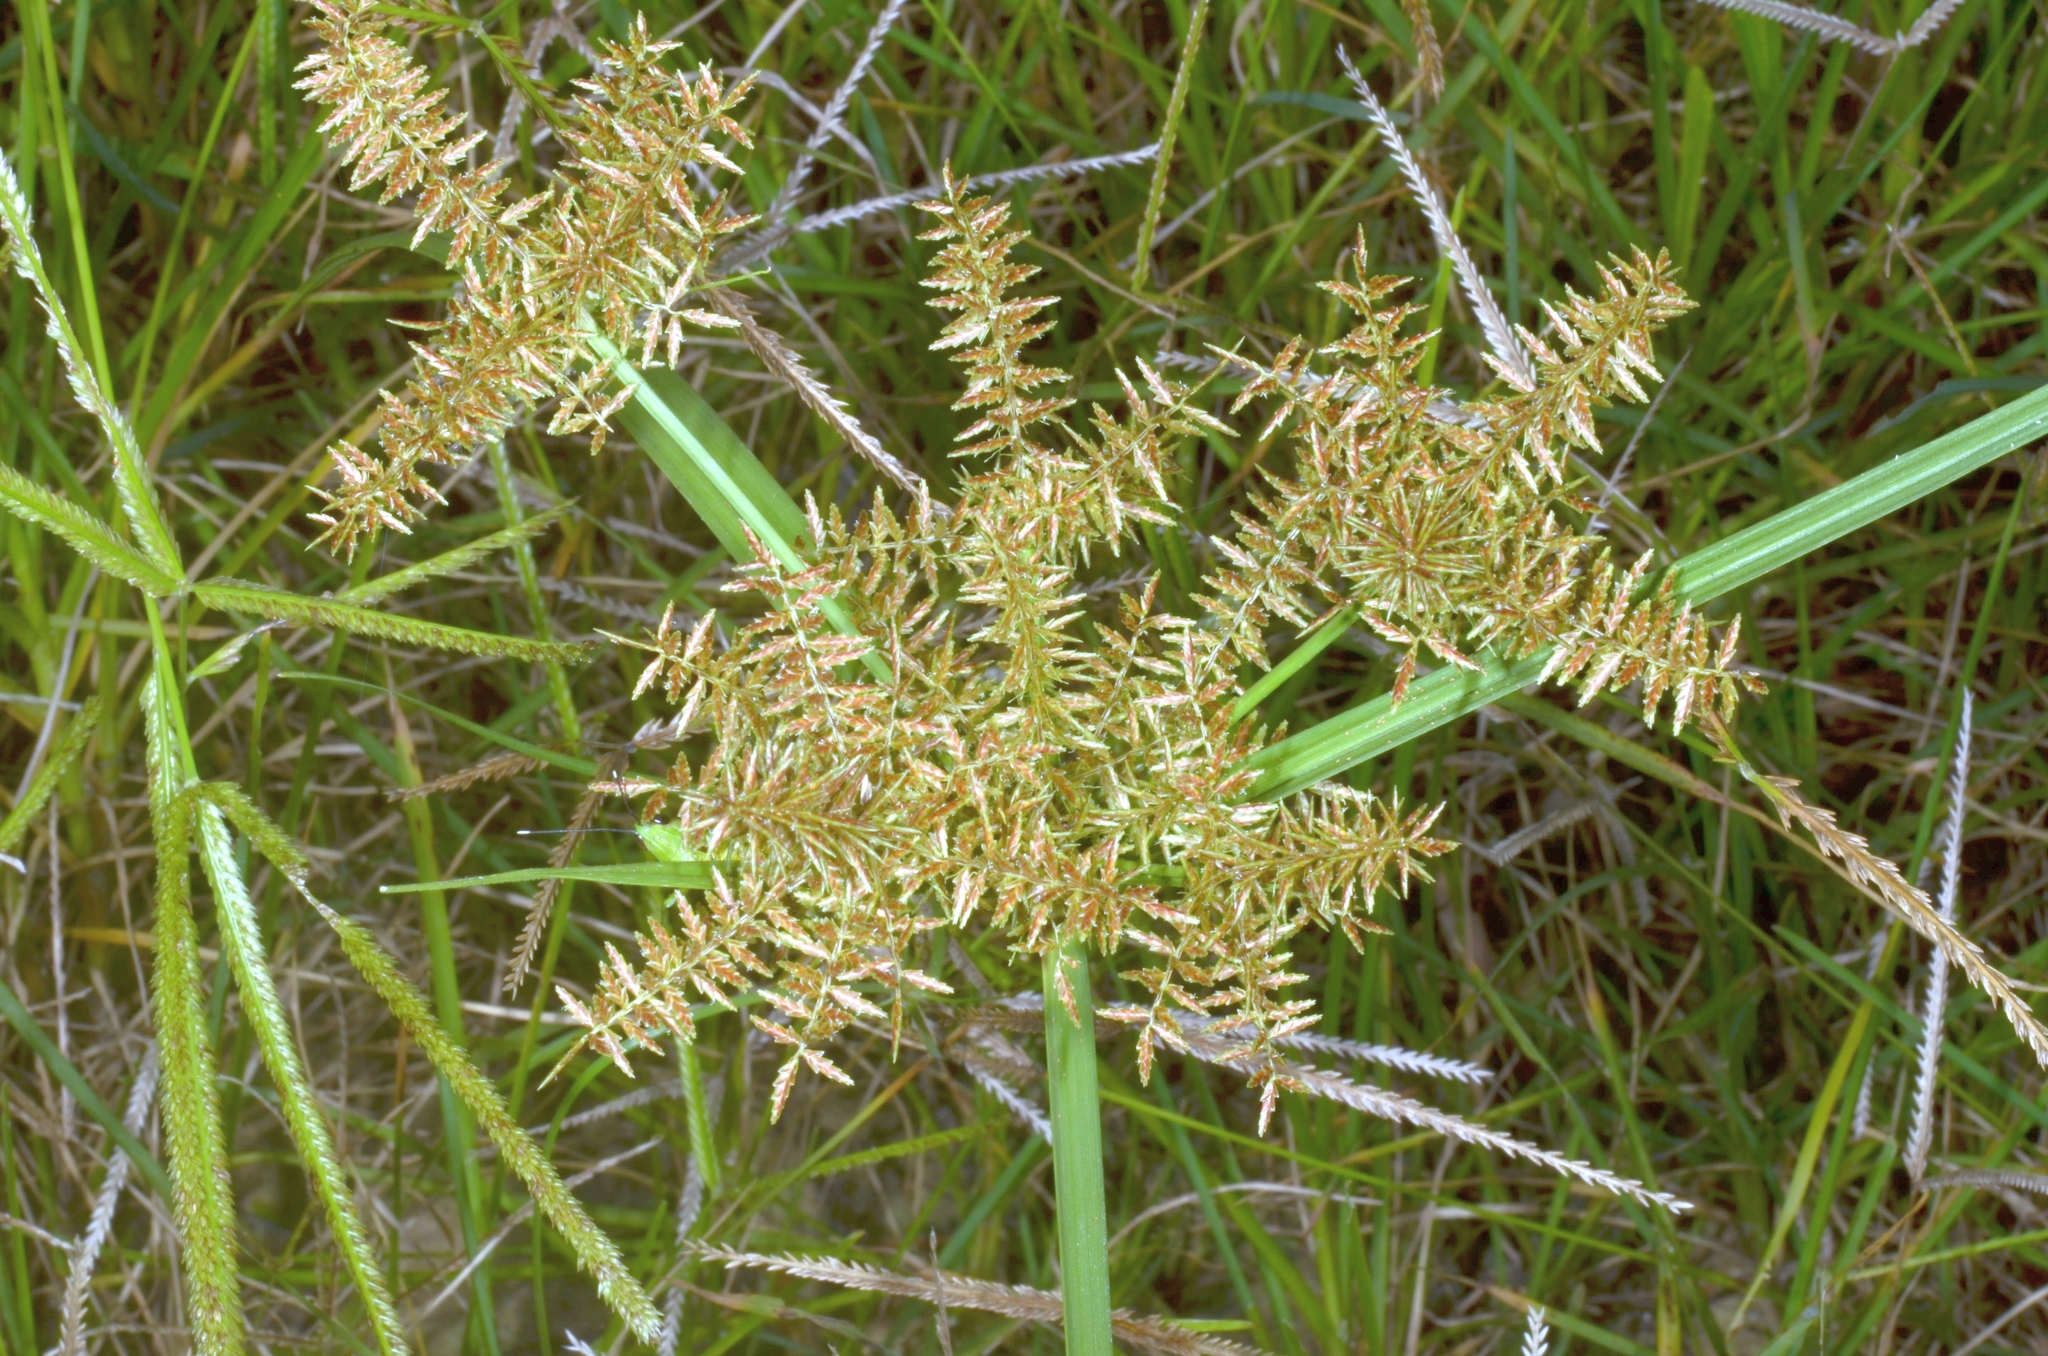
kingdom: Plantae
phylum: Tracheophyta
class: Liliopsida
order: Poales
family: Cyperaceae
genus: Cyperus
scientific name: Cyperus pilosus
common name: Fuzzy flatsedge
